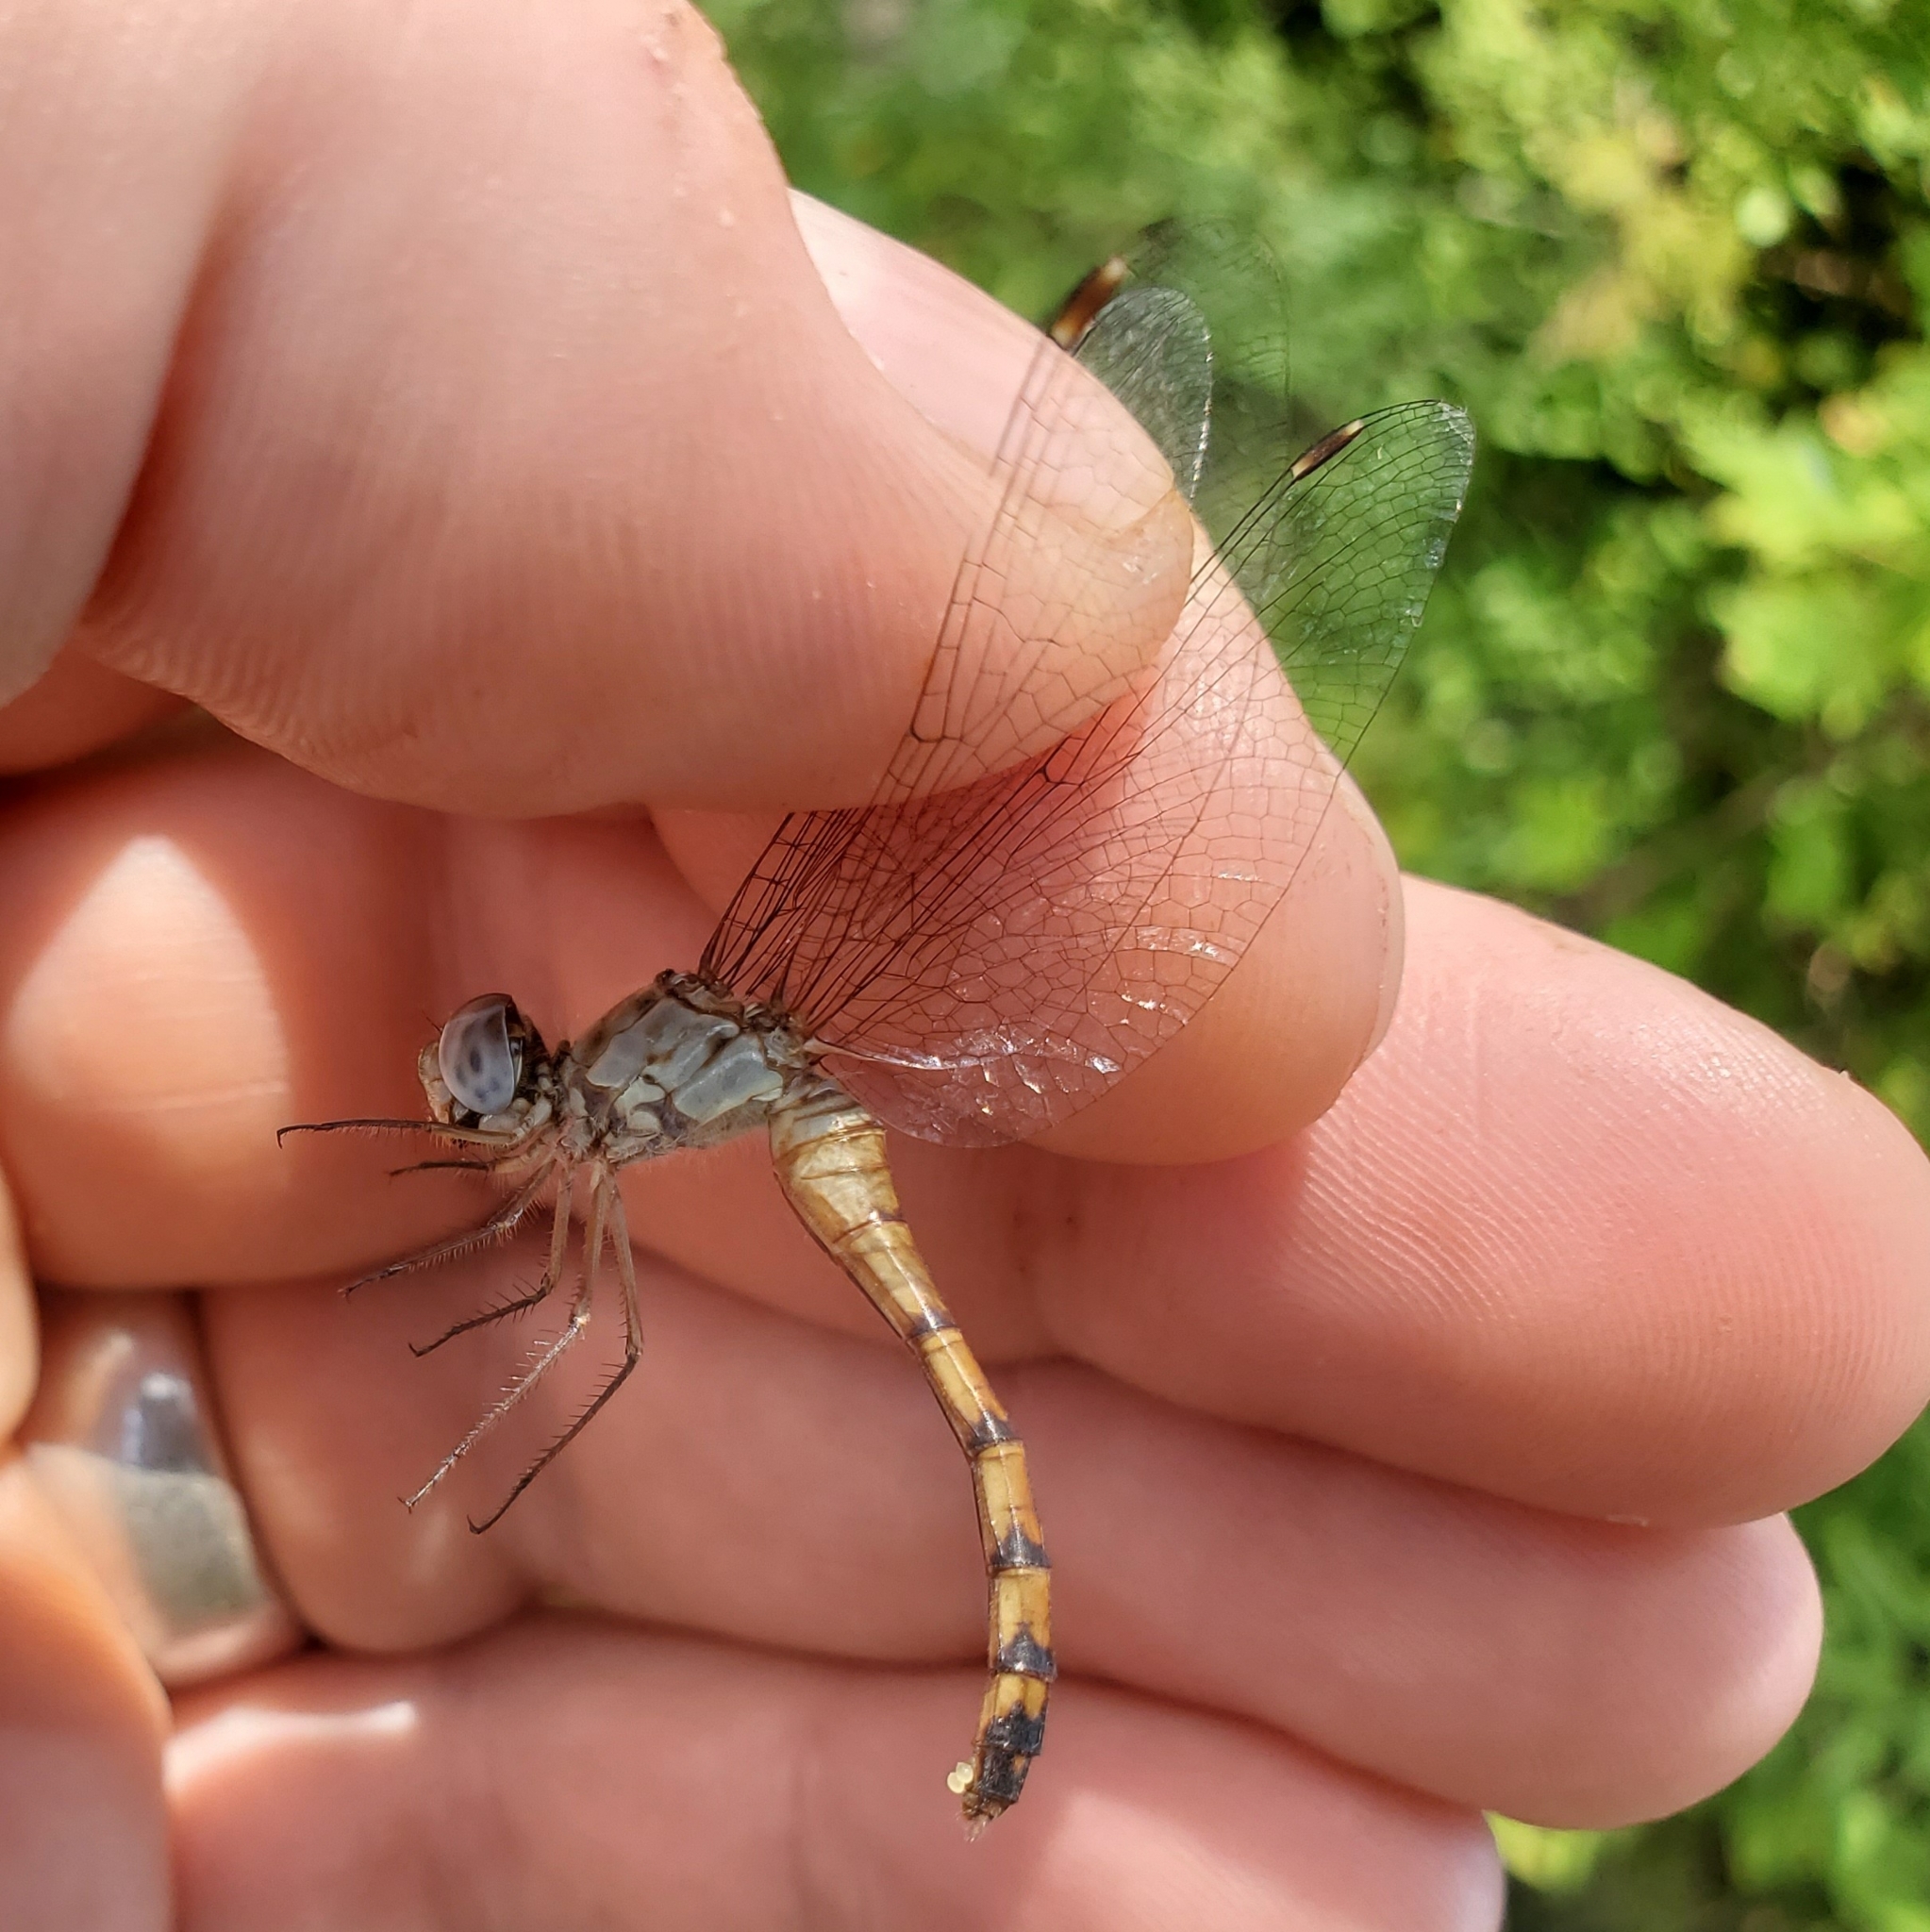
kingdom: Animalia
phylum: Arthropoda
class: Insecta
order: Odonata
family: Libellulidae
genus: Sympetrum
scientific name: Sympetrum ambiguum
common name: Blue-faced meadowhawk
